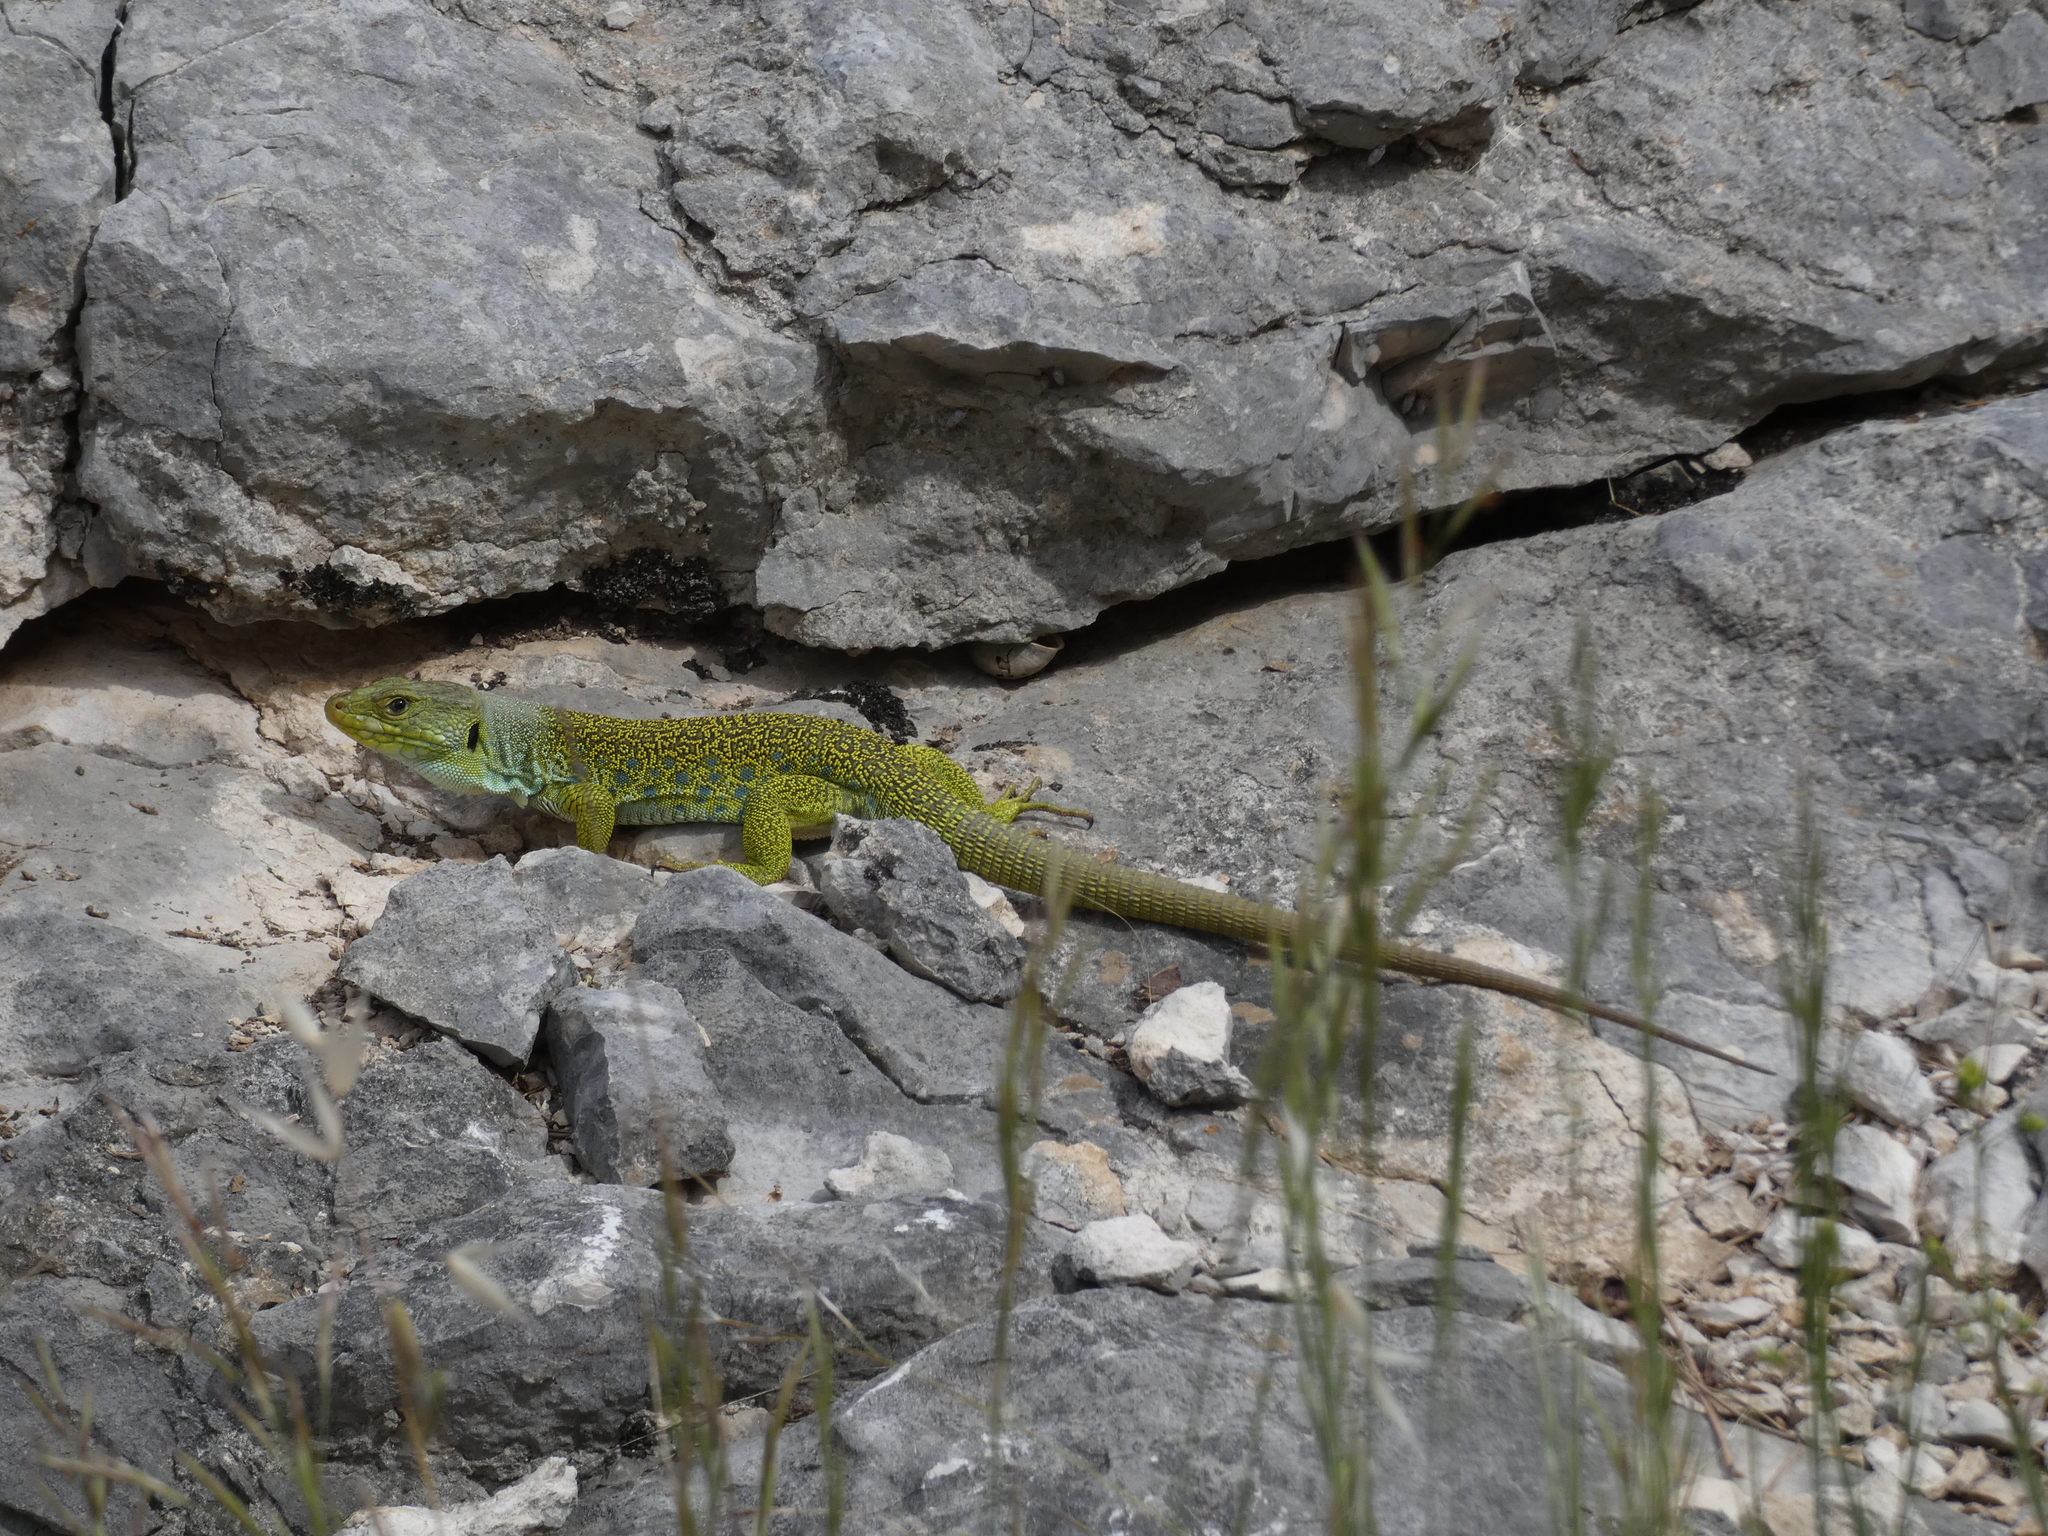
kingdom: Animalia
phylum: Chordata
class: Squamata
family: Lacertidae
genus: Timon
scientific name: Timon lepidus
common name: Ocellated lizard
